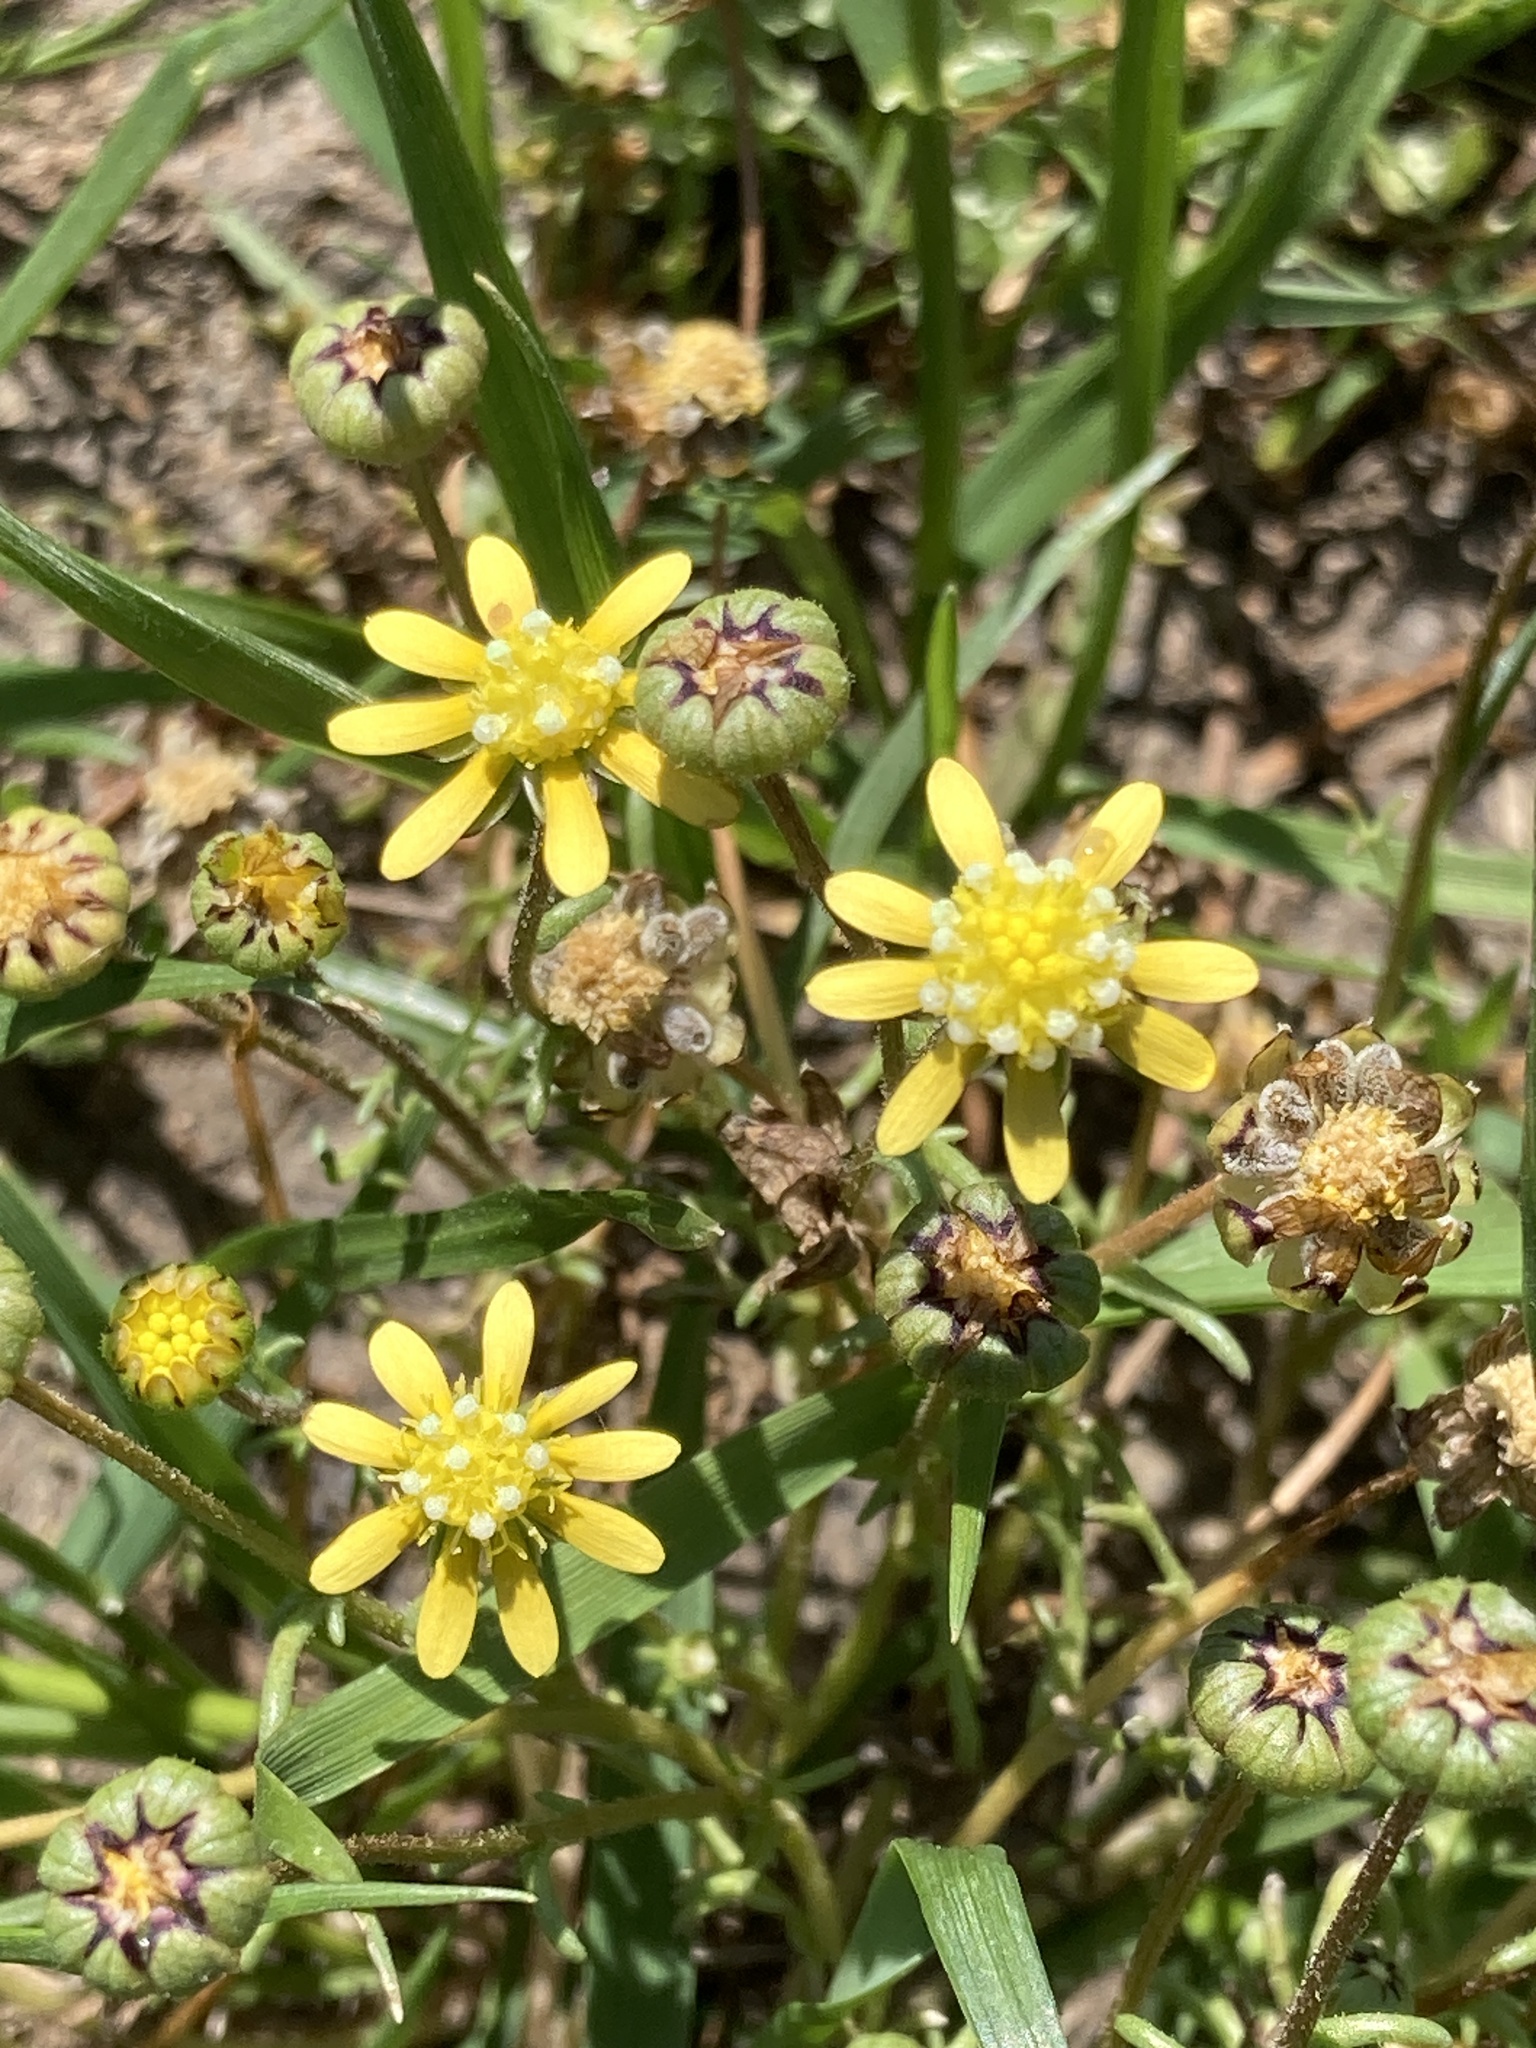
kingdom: Plantae
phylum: Tracheophyta
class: Magnoliopsida
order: Asterales
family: Asteraceae
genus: Blennosperma
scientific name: Blennosperma nanum
